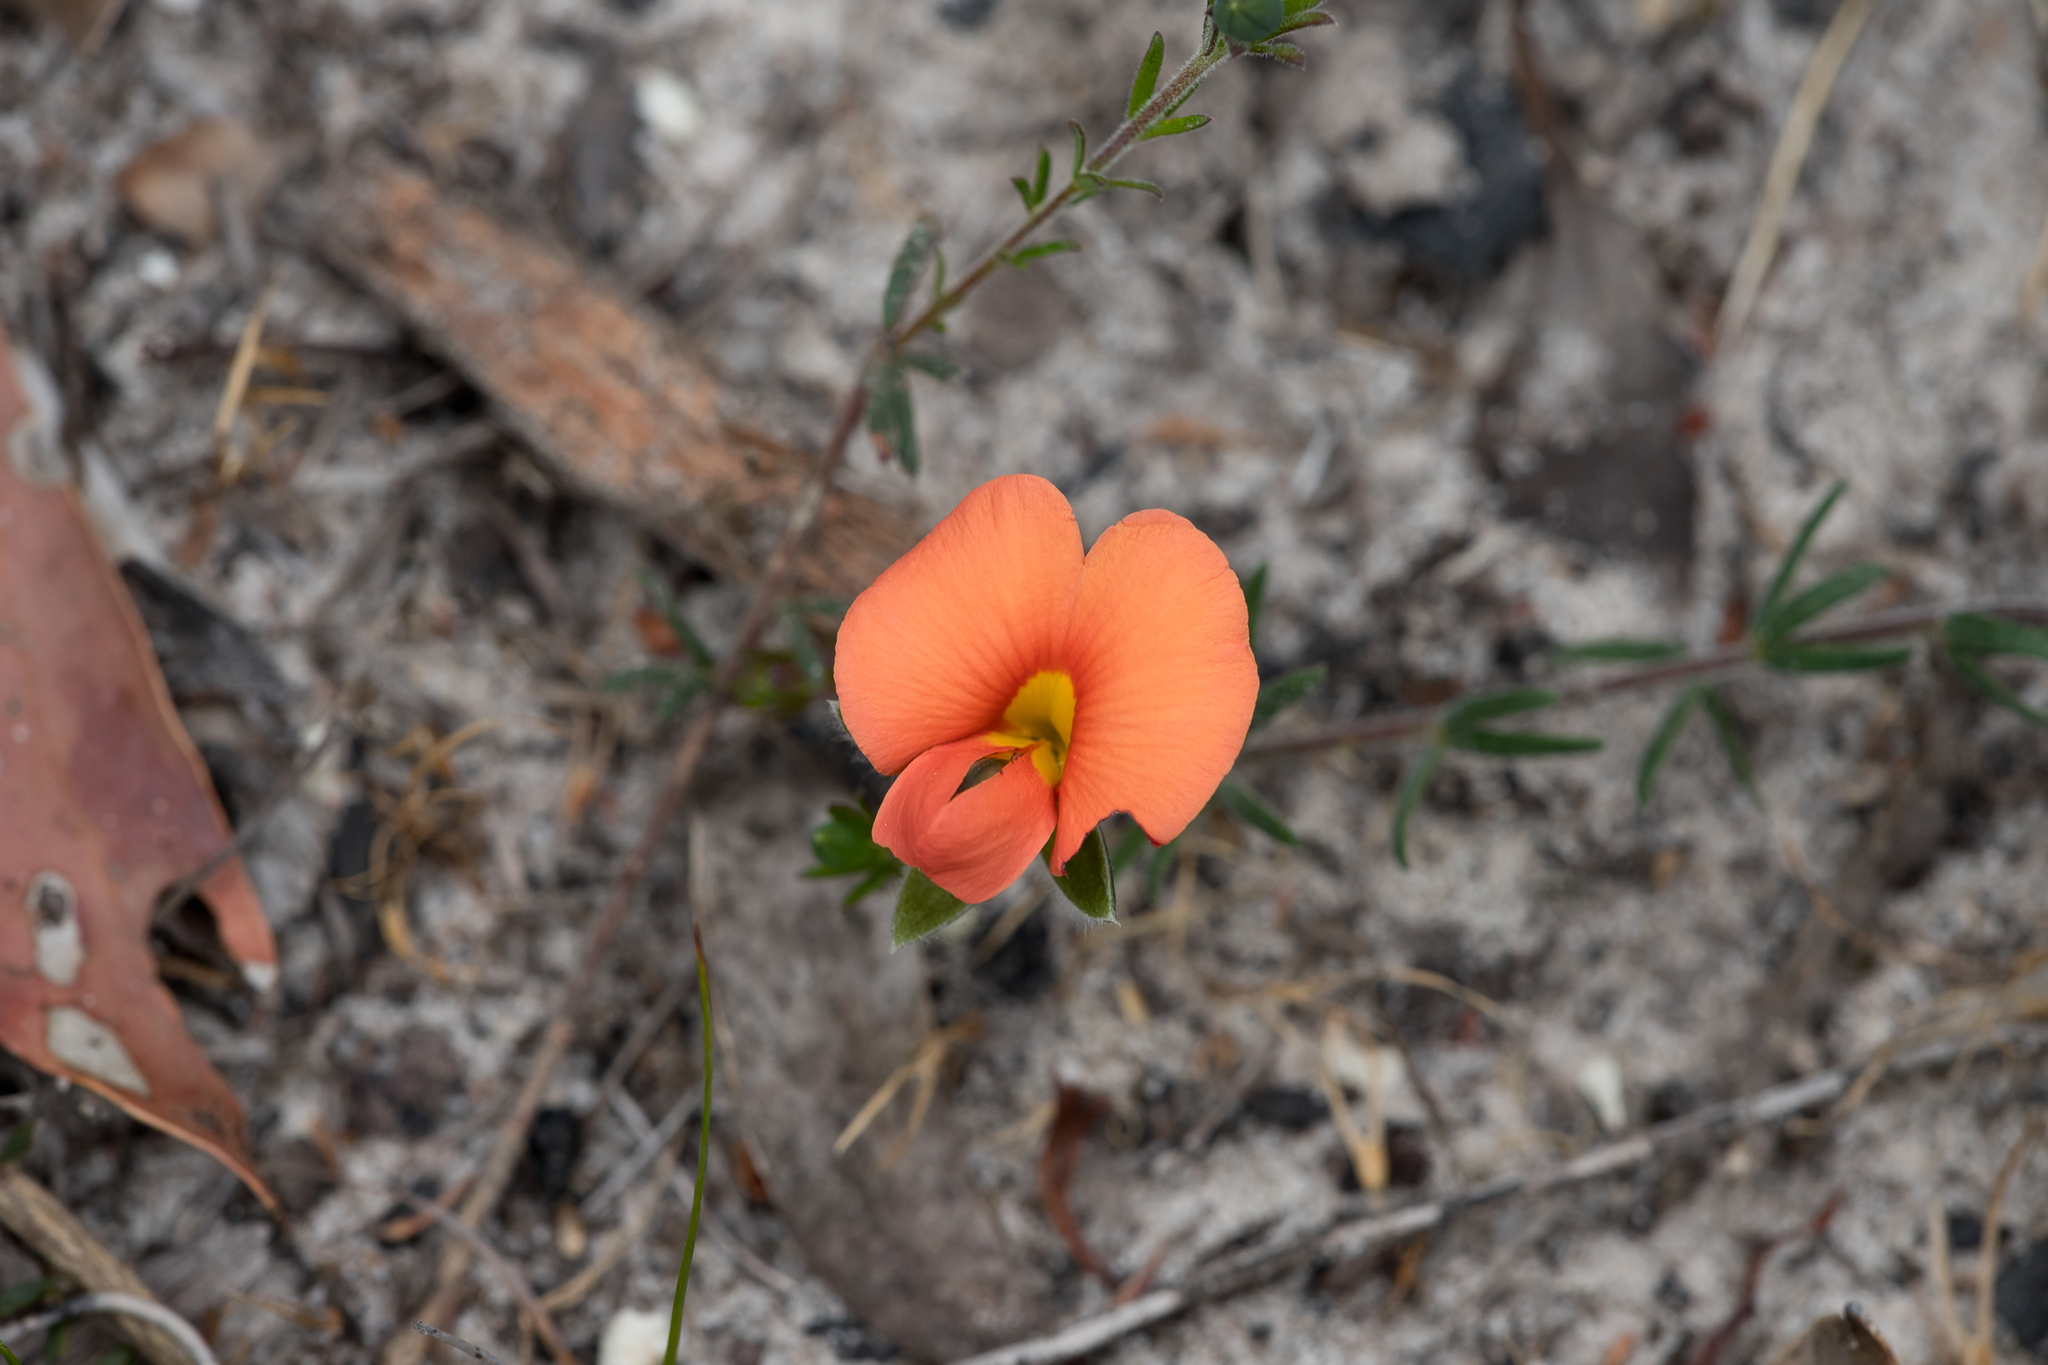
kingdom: Plantae
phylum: Tracheophyta
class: Magnoliopsida
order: Fabales
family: Fabaceae
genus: Gompholobium
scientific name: Gompholobium ecostatum
